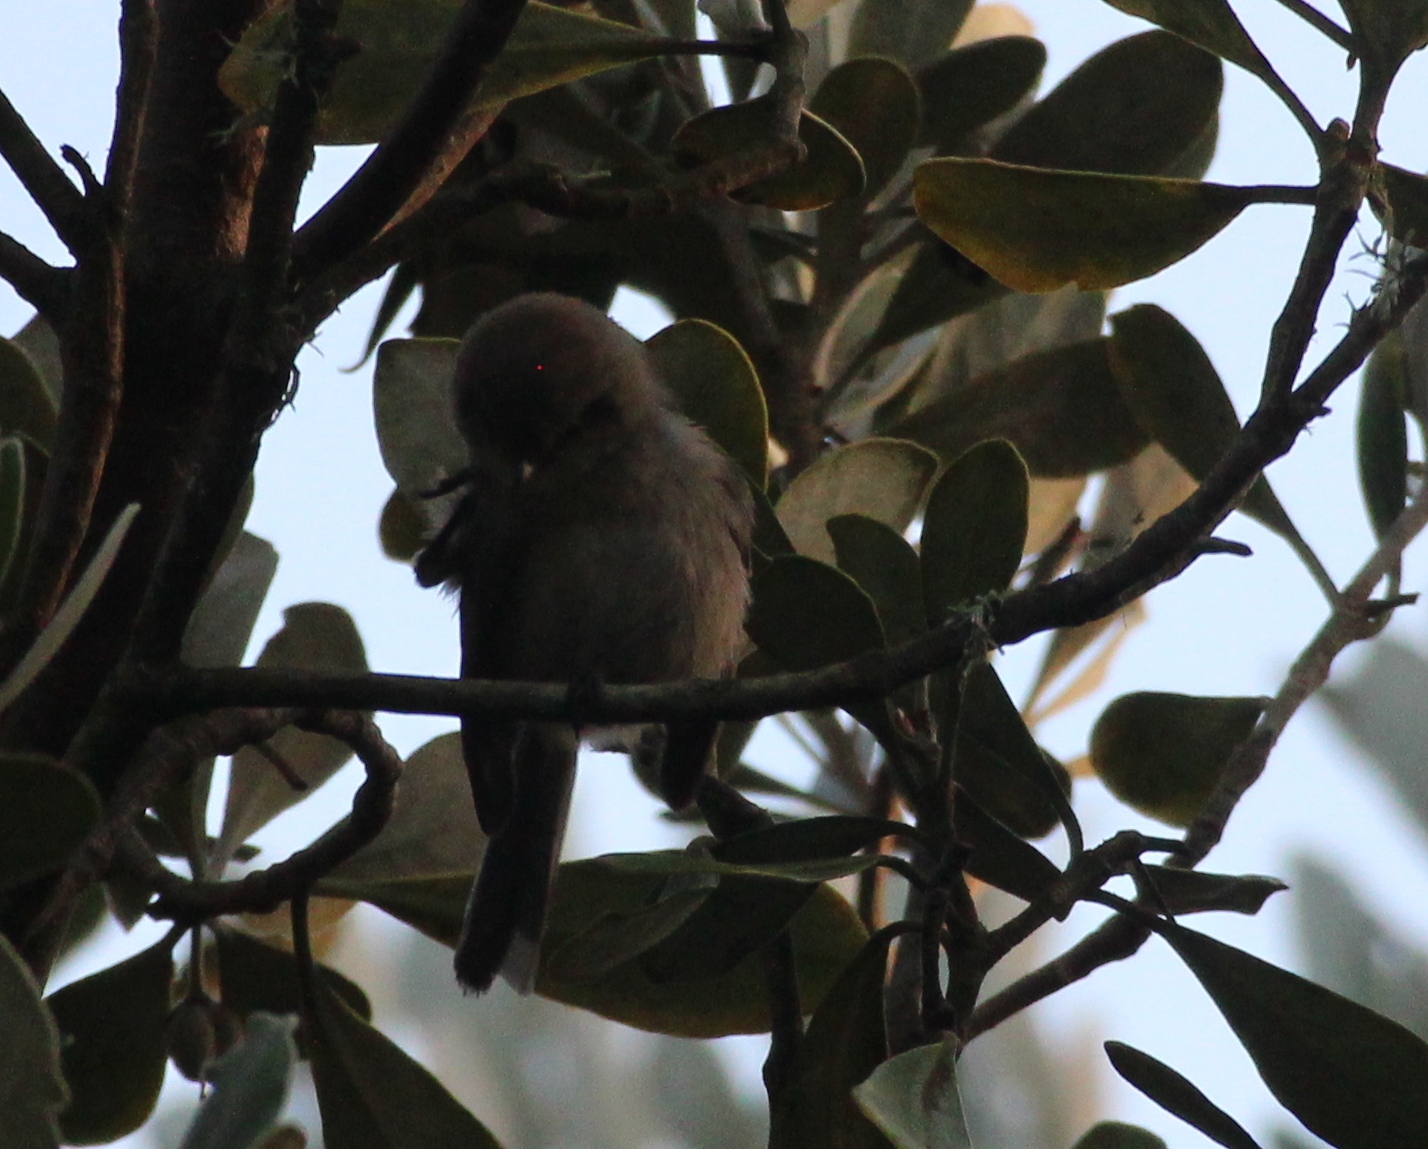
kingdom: Animalia
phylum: Chordata
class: Aves
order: Passeriformes
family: Aegithalidae
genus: Psaltriparus
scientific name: Psaltriparus minimus
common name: American bushtit
